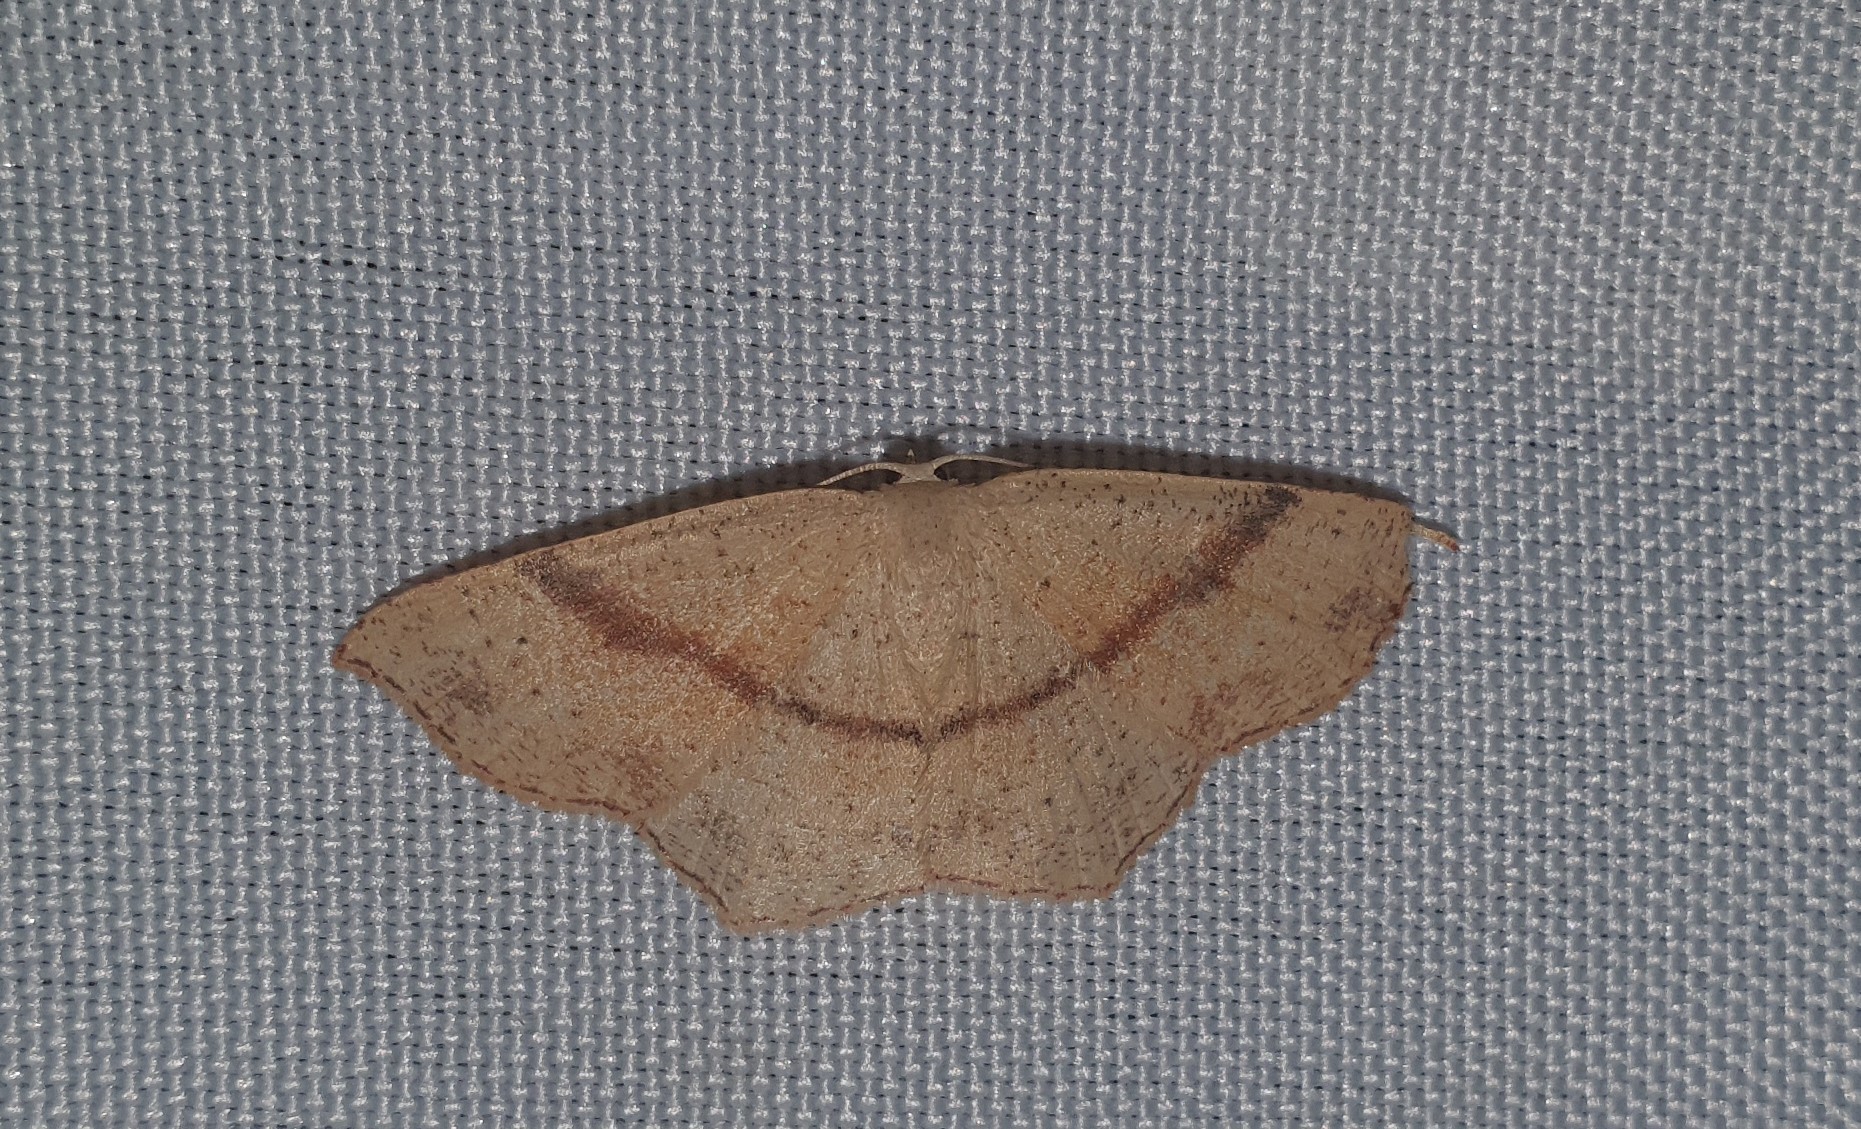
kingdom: Animalia
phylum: Arthropoda
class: Insecta
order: Lepidoptera
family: Geometridae
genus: Cyclophora
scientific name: Cyclophora punctaria
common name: Maiden's blush
